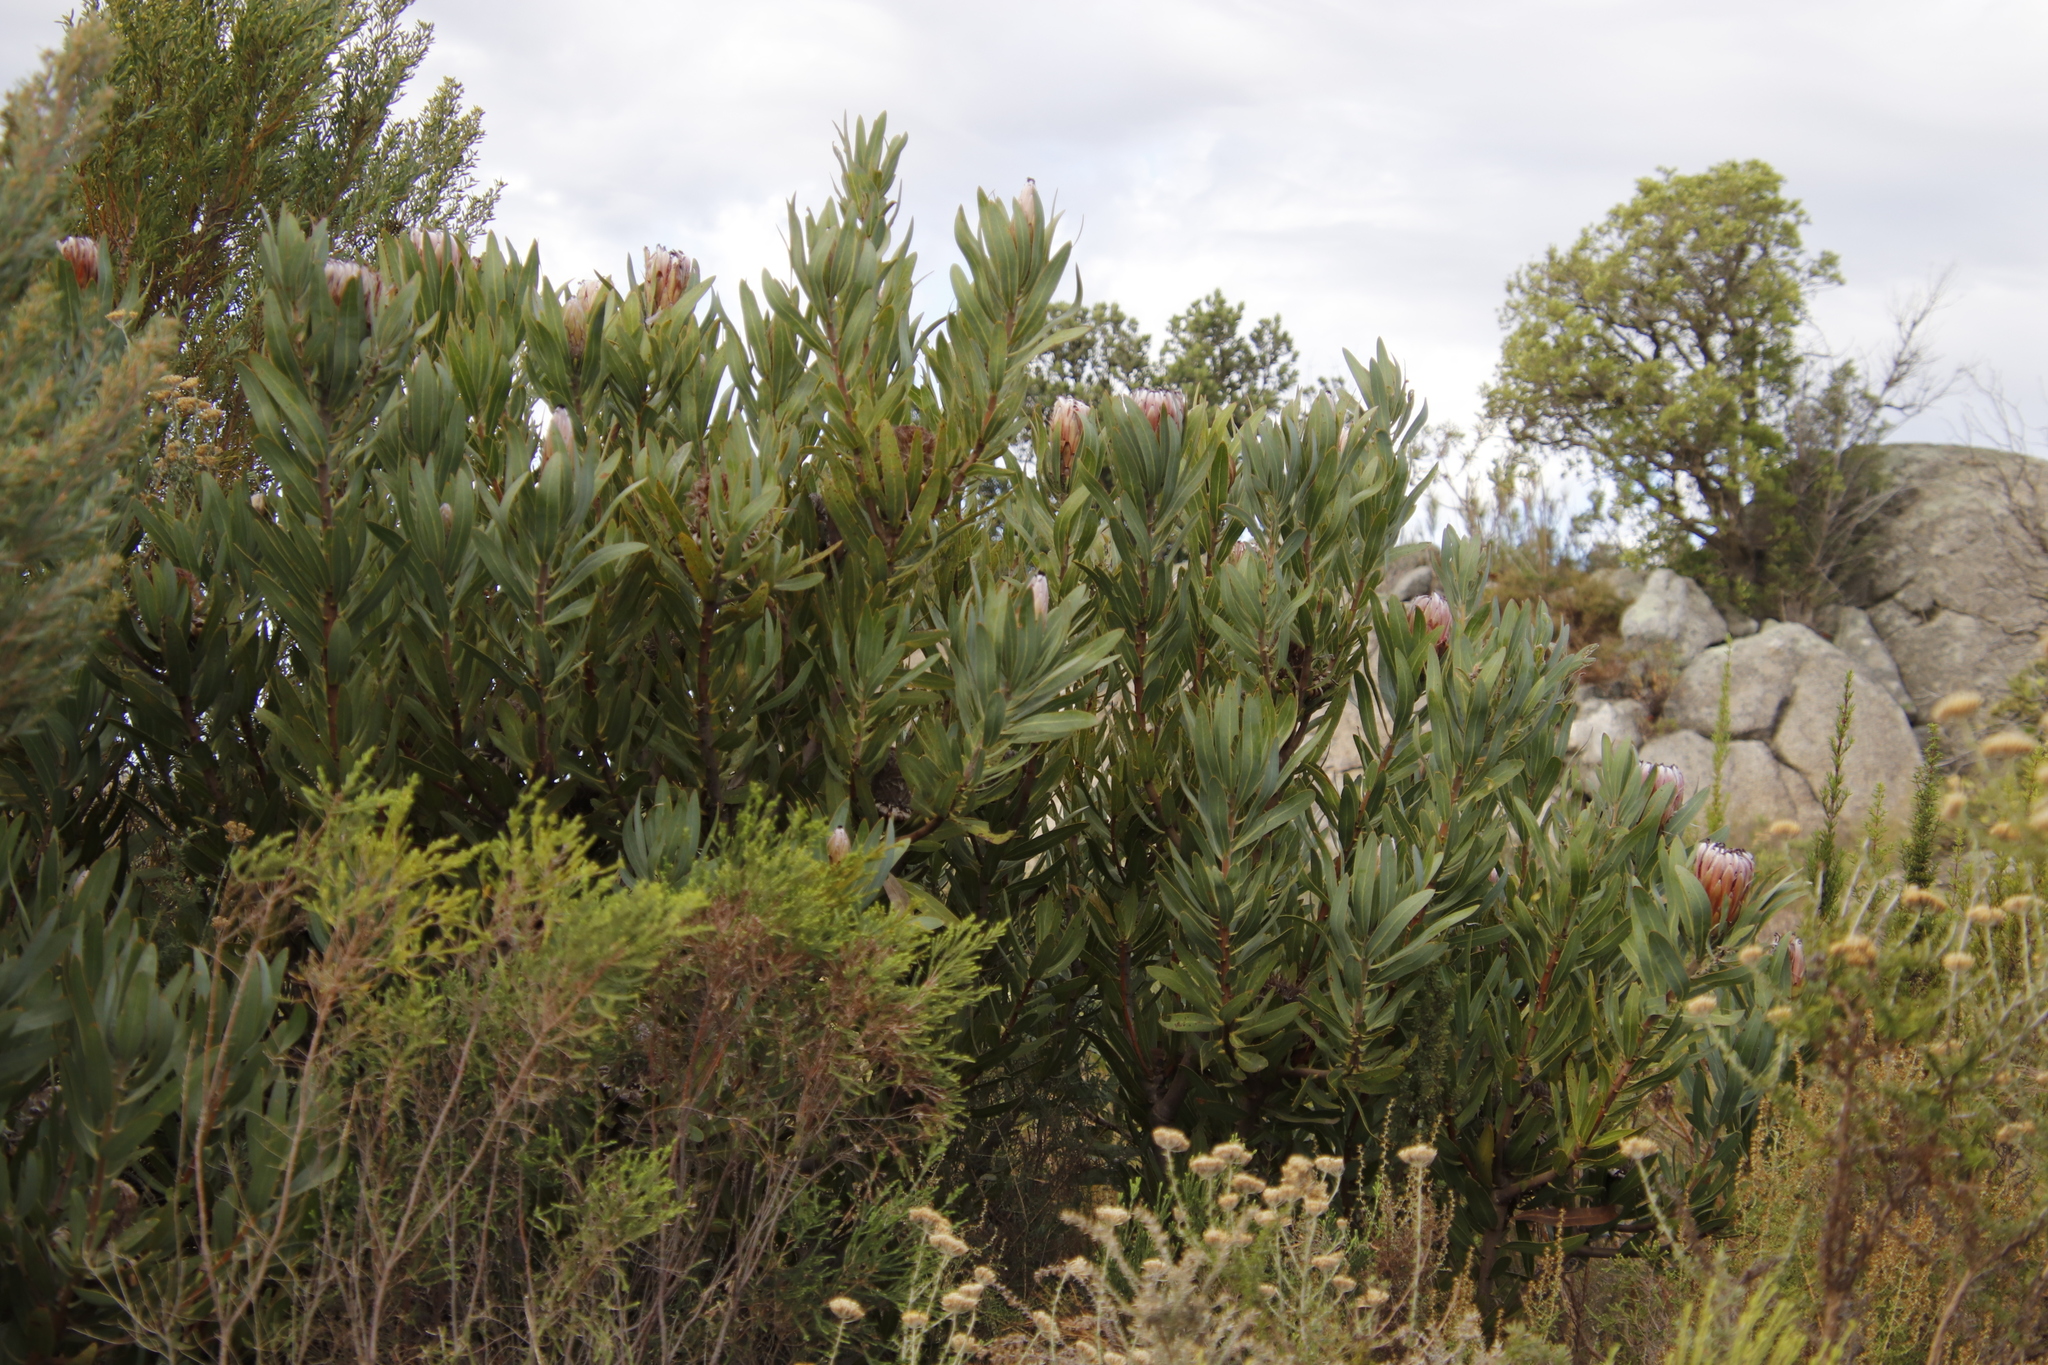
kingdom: Plantae
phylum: Tracheophyta
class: Magnoliopsida
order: Proteales
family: Proteaceae
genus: Protea
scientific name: Protea laurifolia
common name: Grey-leaf sugarbsh
